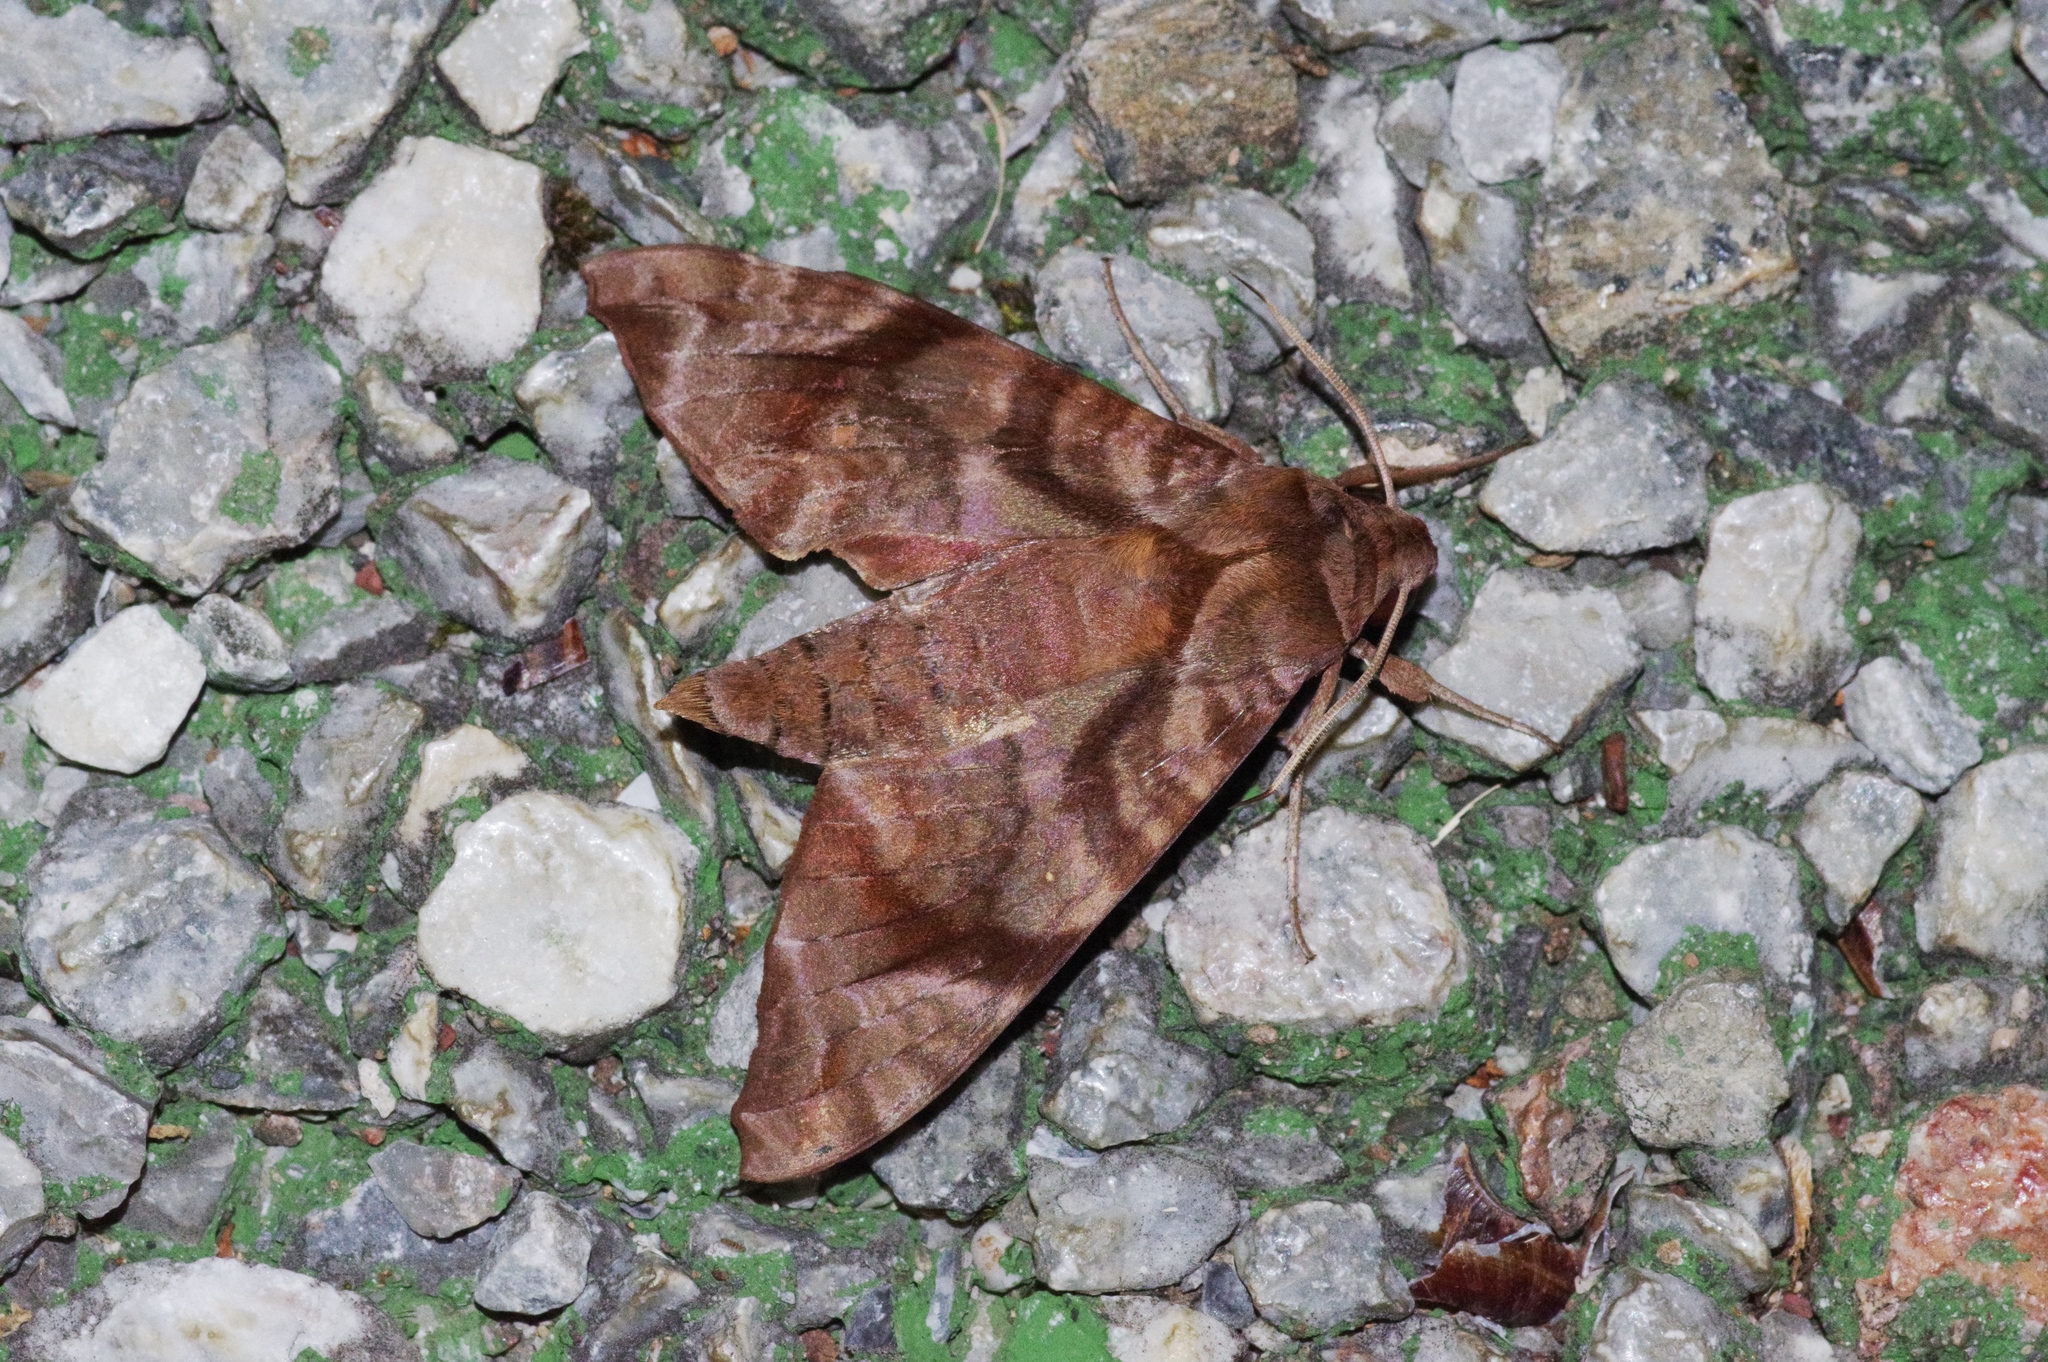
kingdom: Animalia
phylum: Arthropoda
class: Insecta
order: Lepidoptera
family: Sphingidae
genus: Acosmeryx
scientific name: Acosmeryx castanea
